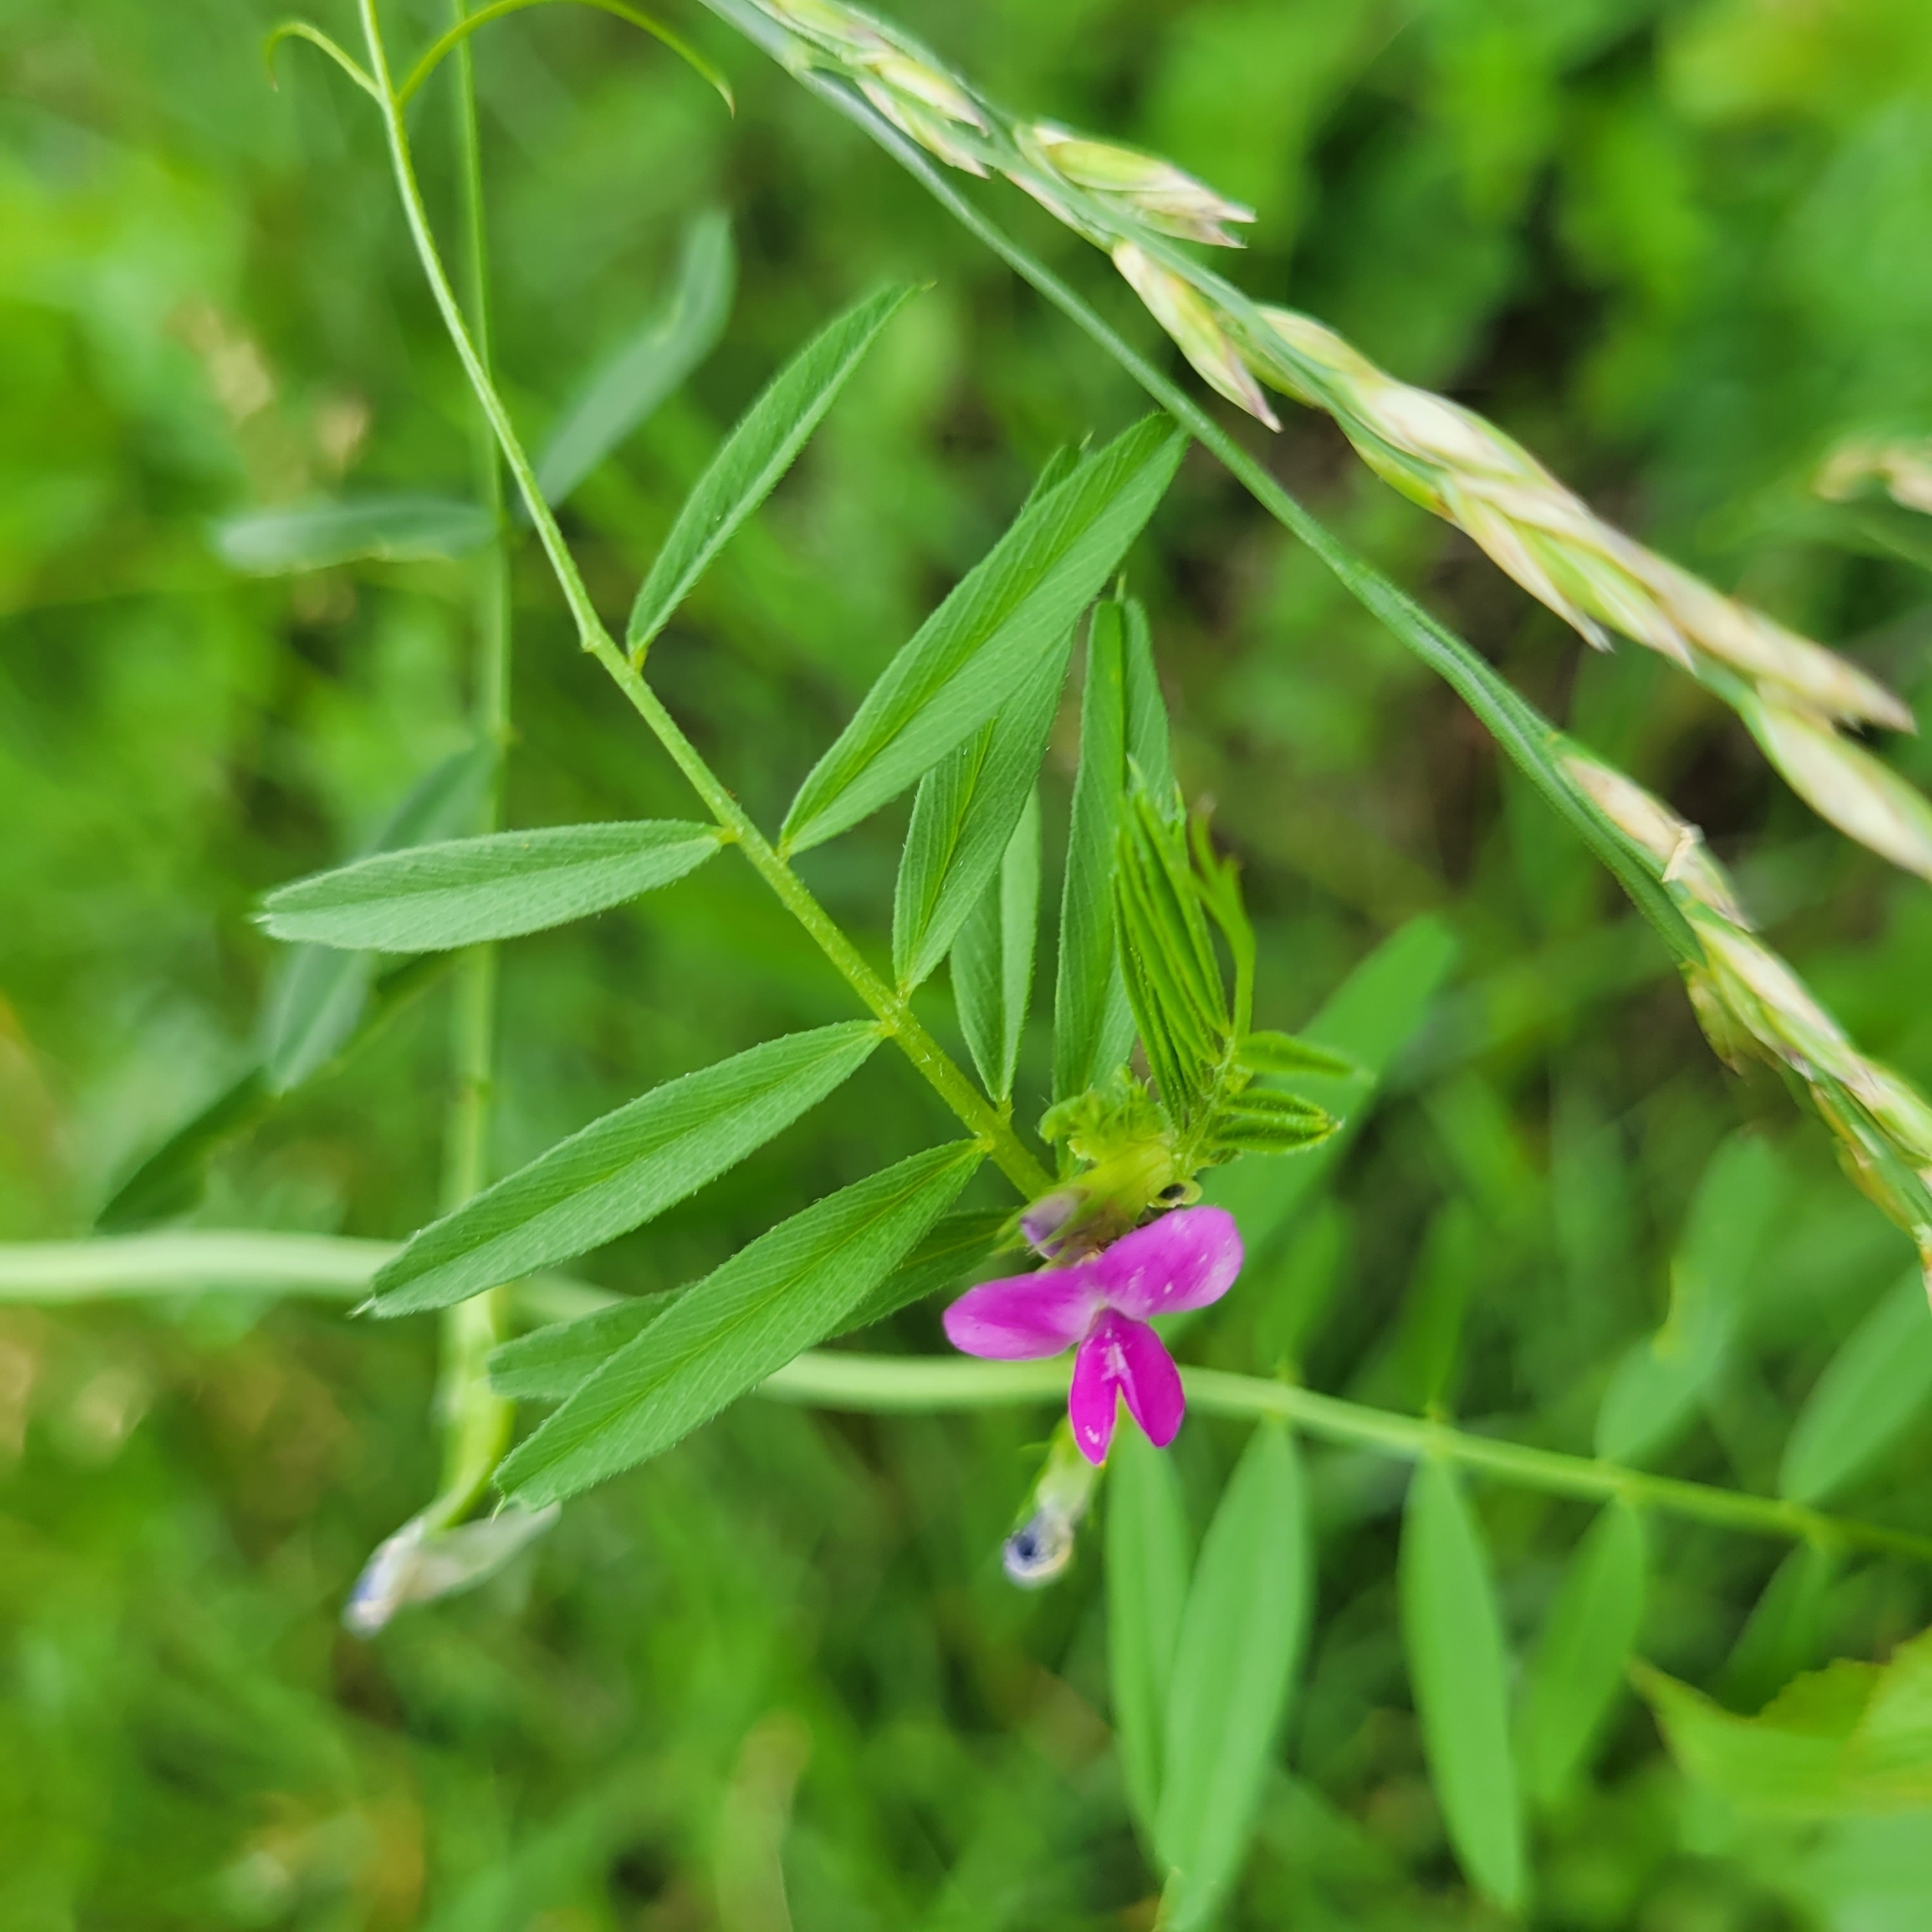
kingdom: Plantae
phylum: Tracheophyta
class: Magnoliopsida
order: Fabales
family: Fabaceae
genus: Vicia
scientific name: Vicia sativa
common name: Garden vetch
